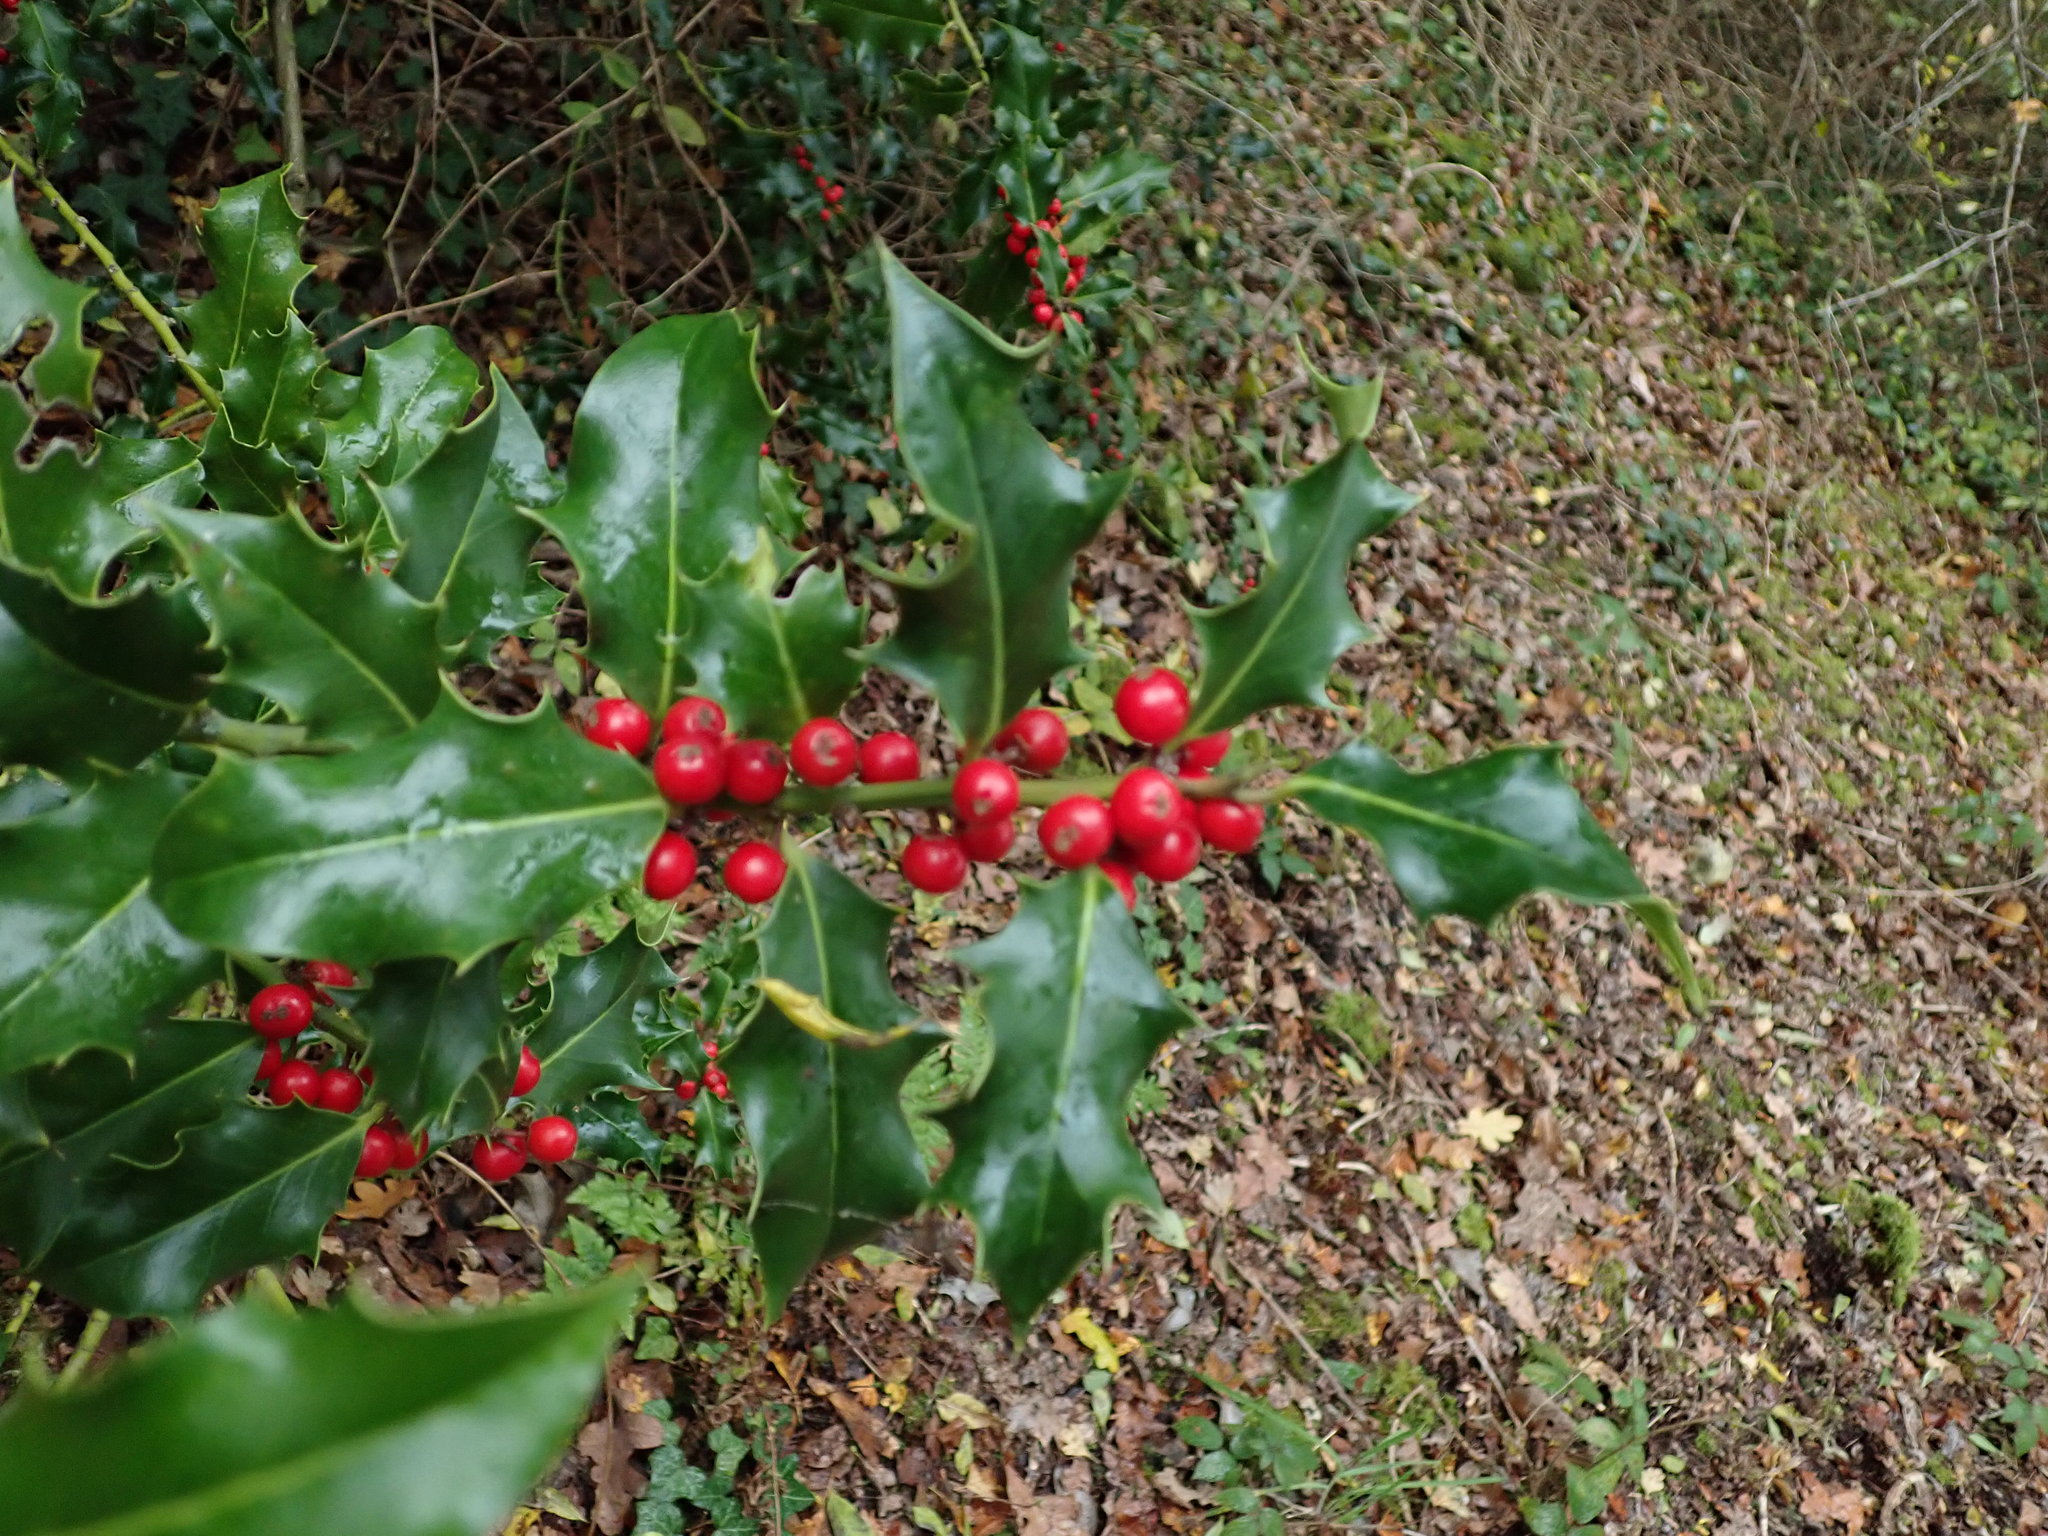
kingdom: Plantae
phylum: Tracheophyta
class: Magnoliopsida
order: Aquifoliales
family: Aquifoliaceae
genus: Ilex
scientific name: Ilex aquifolium
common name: English holly
